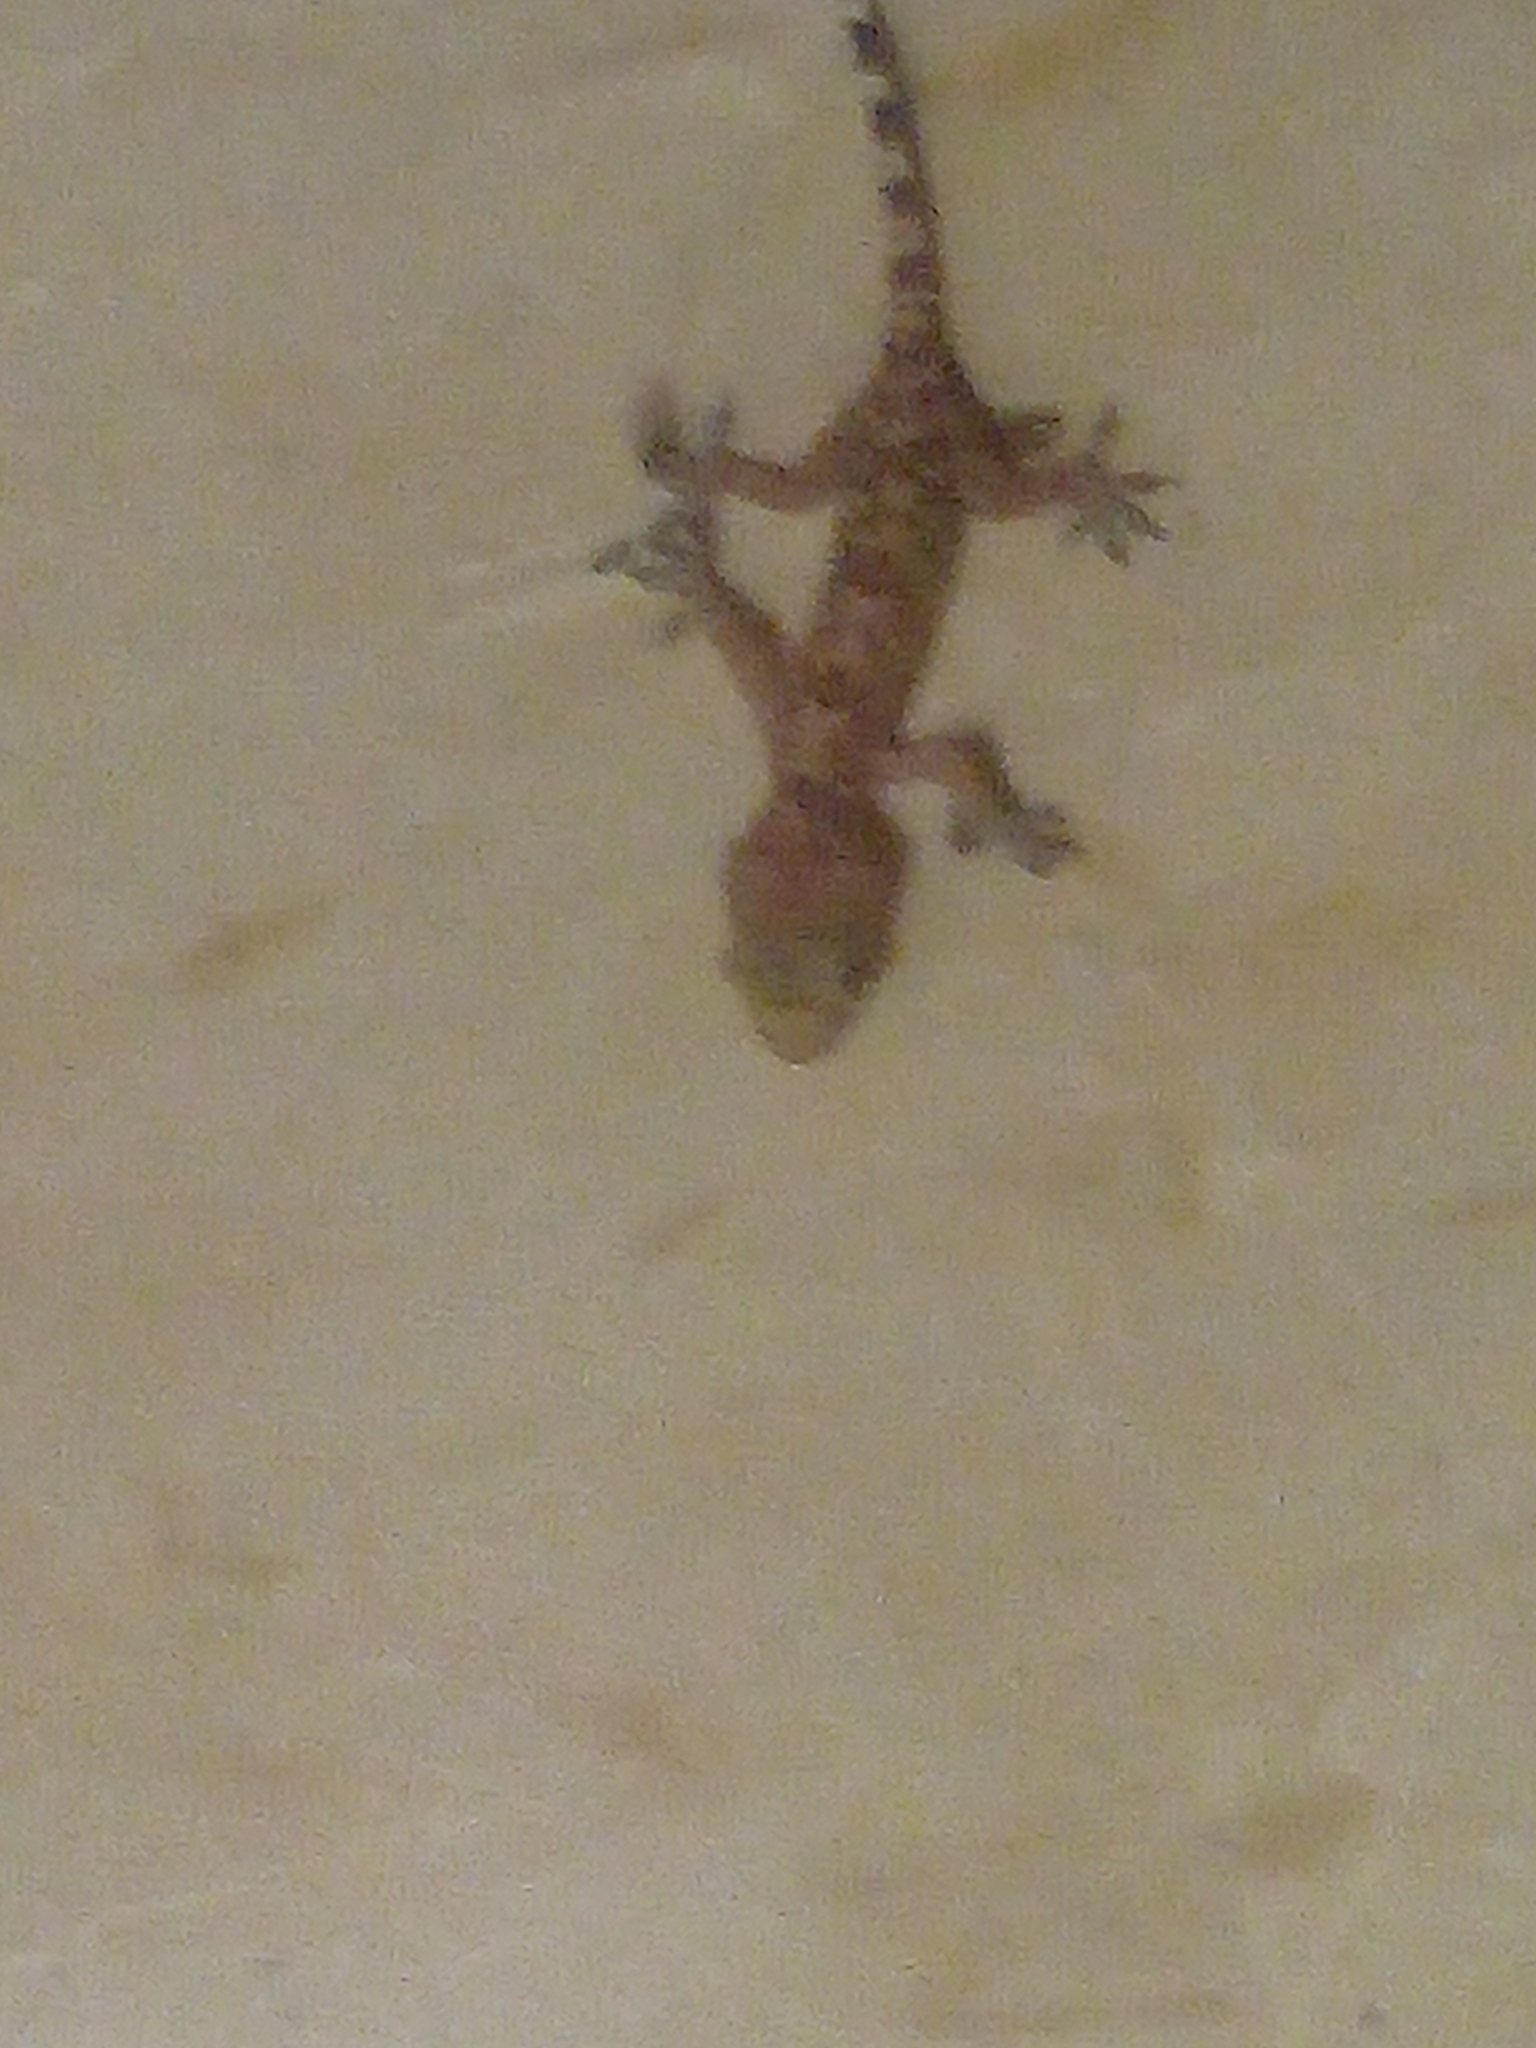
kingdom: Animalia
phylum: Chordata
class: Squamata
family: Gekkonidae
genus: Hemidactylus
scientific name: Hemidactylus turcicus
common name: Turkish gecko
